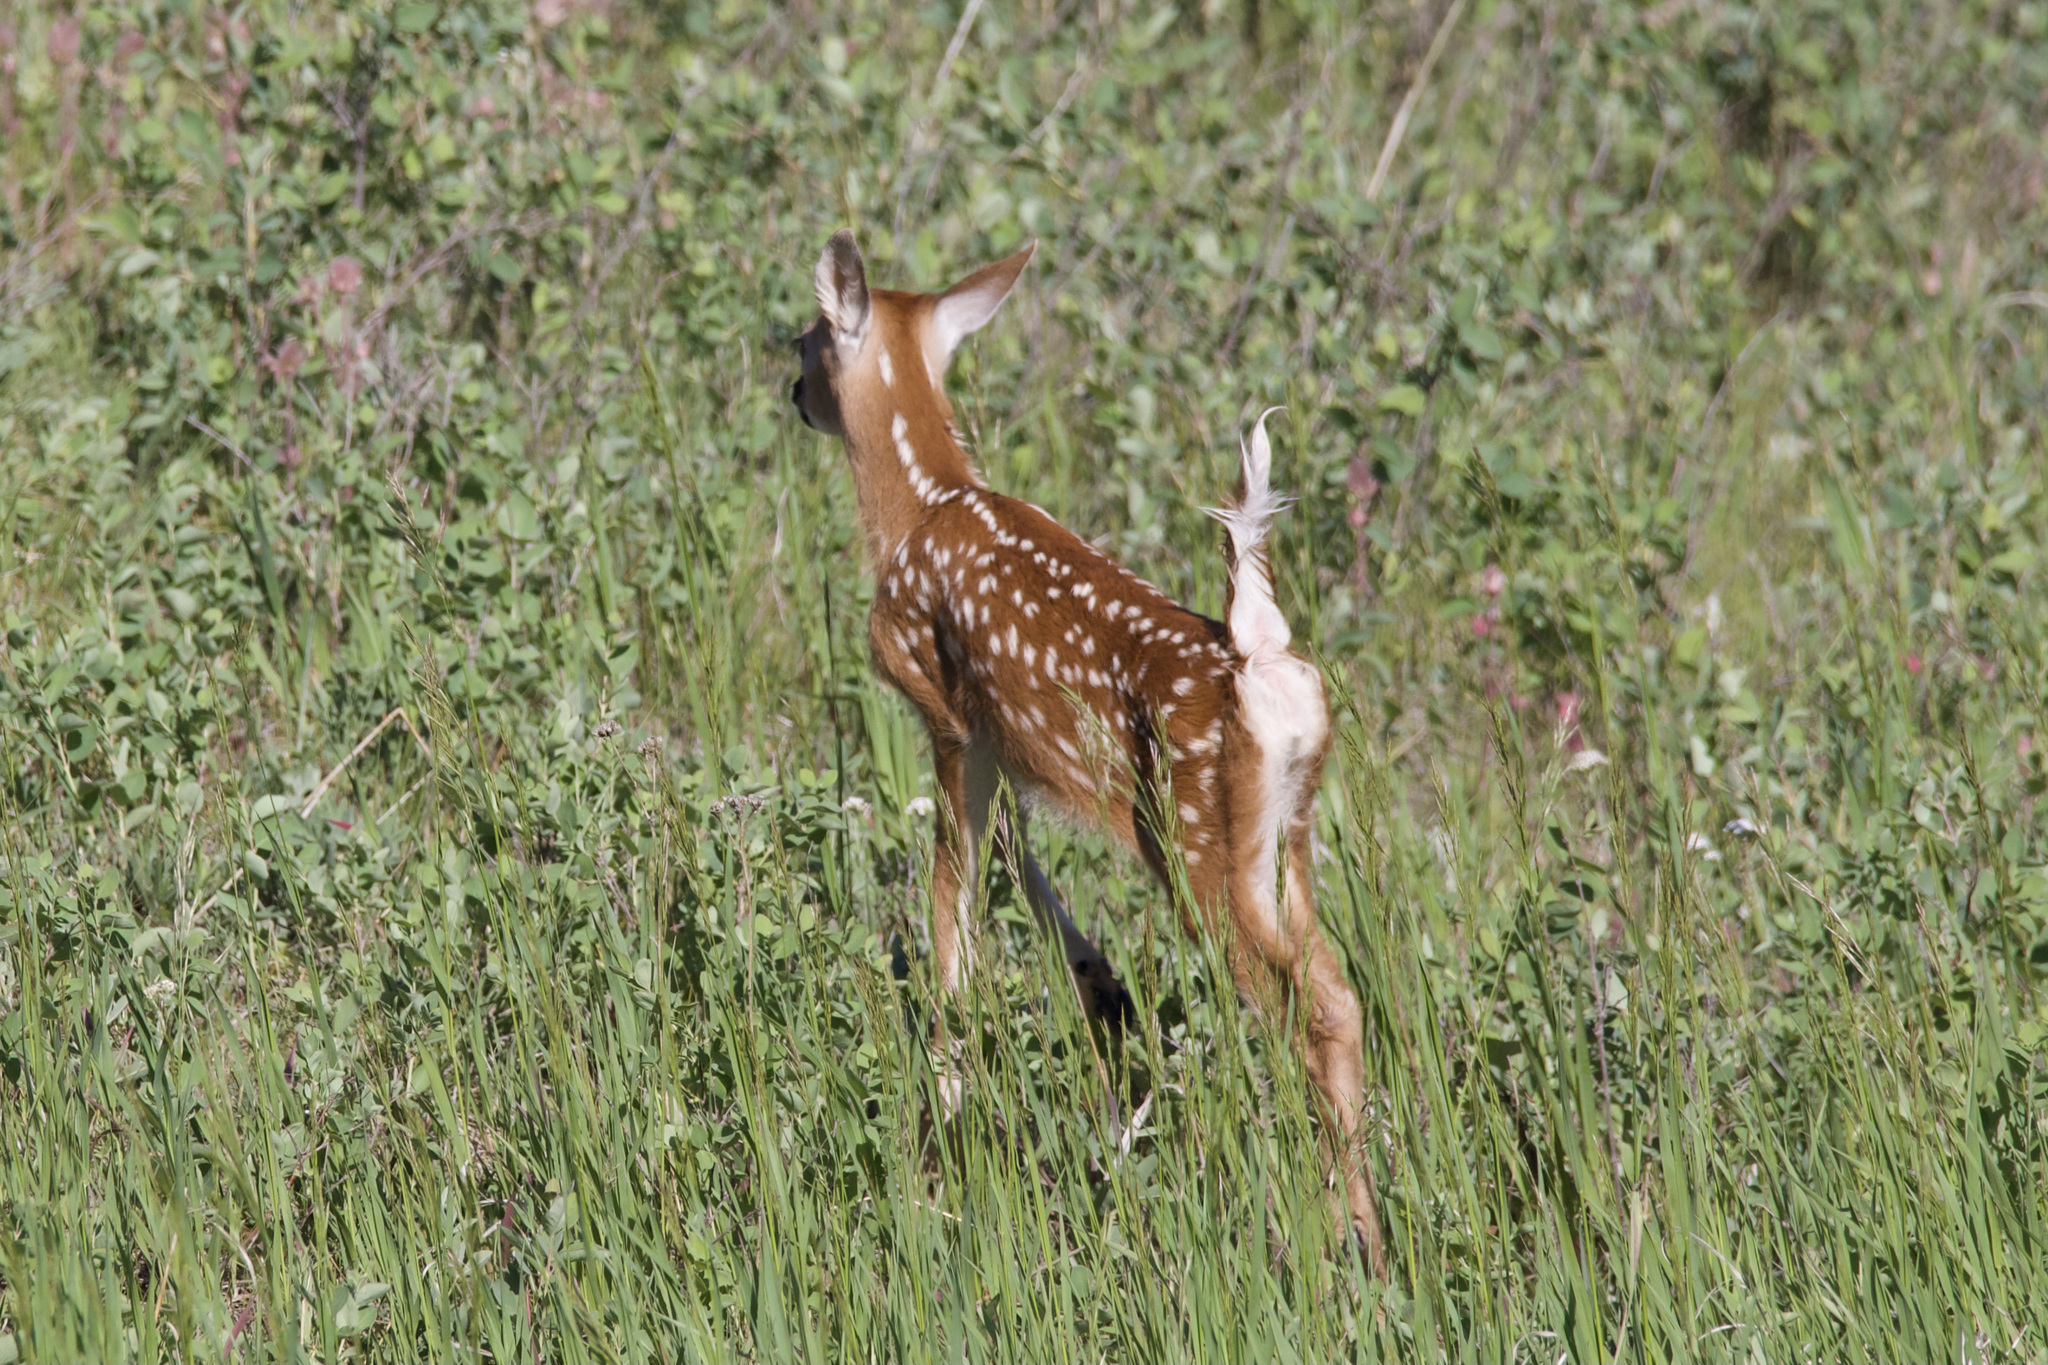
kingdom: Animalia
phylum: Chordata
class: Mammalia
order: Artiodactyla
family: Cervidae
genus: Odocoileus
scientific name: Odocoileus virginianus
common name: White-tailed deer
